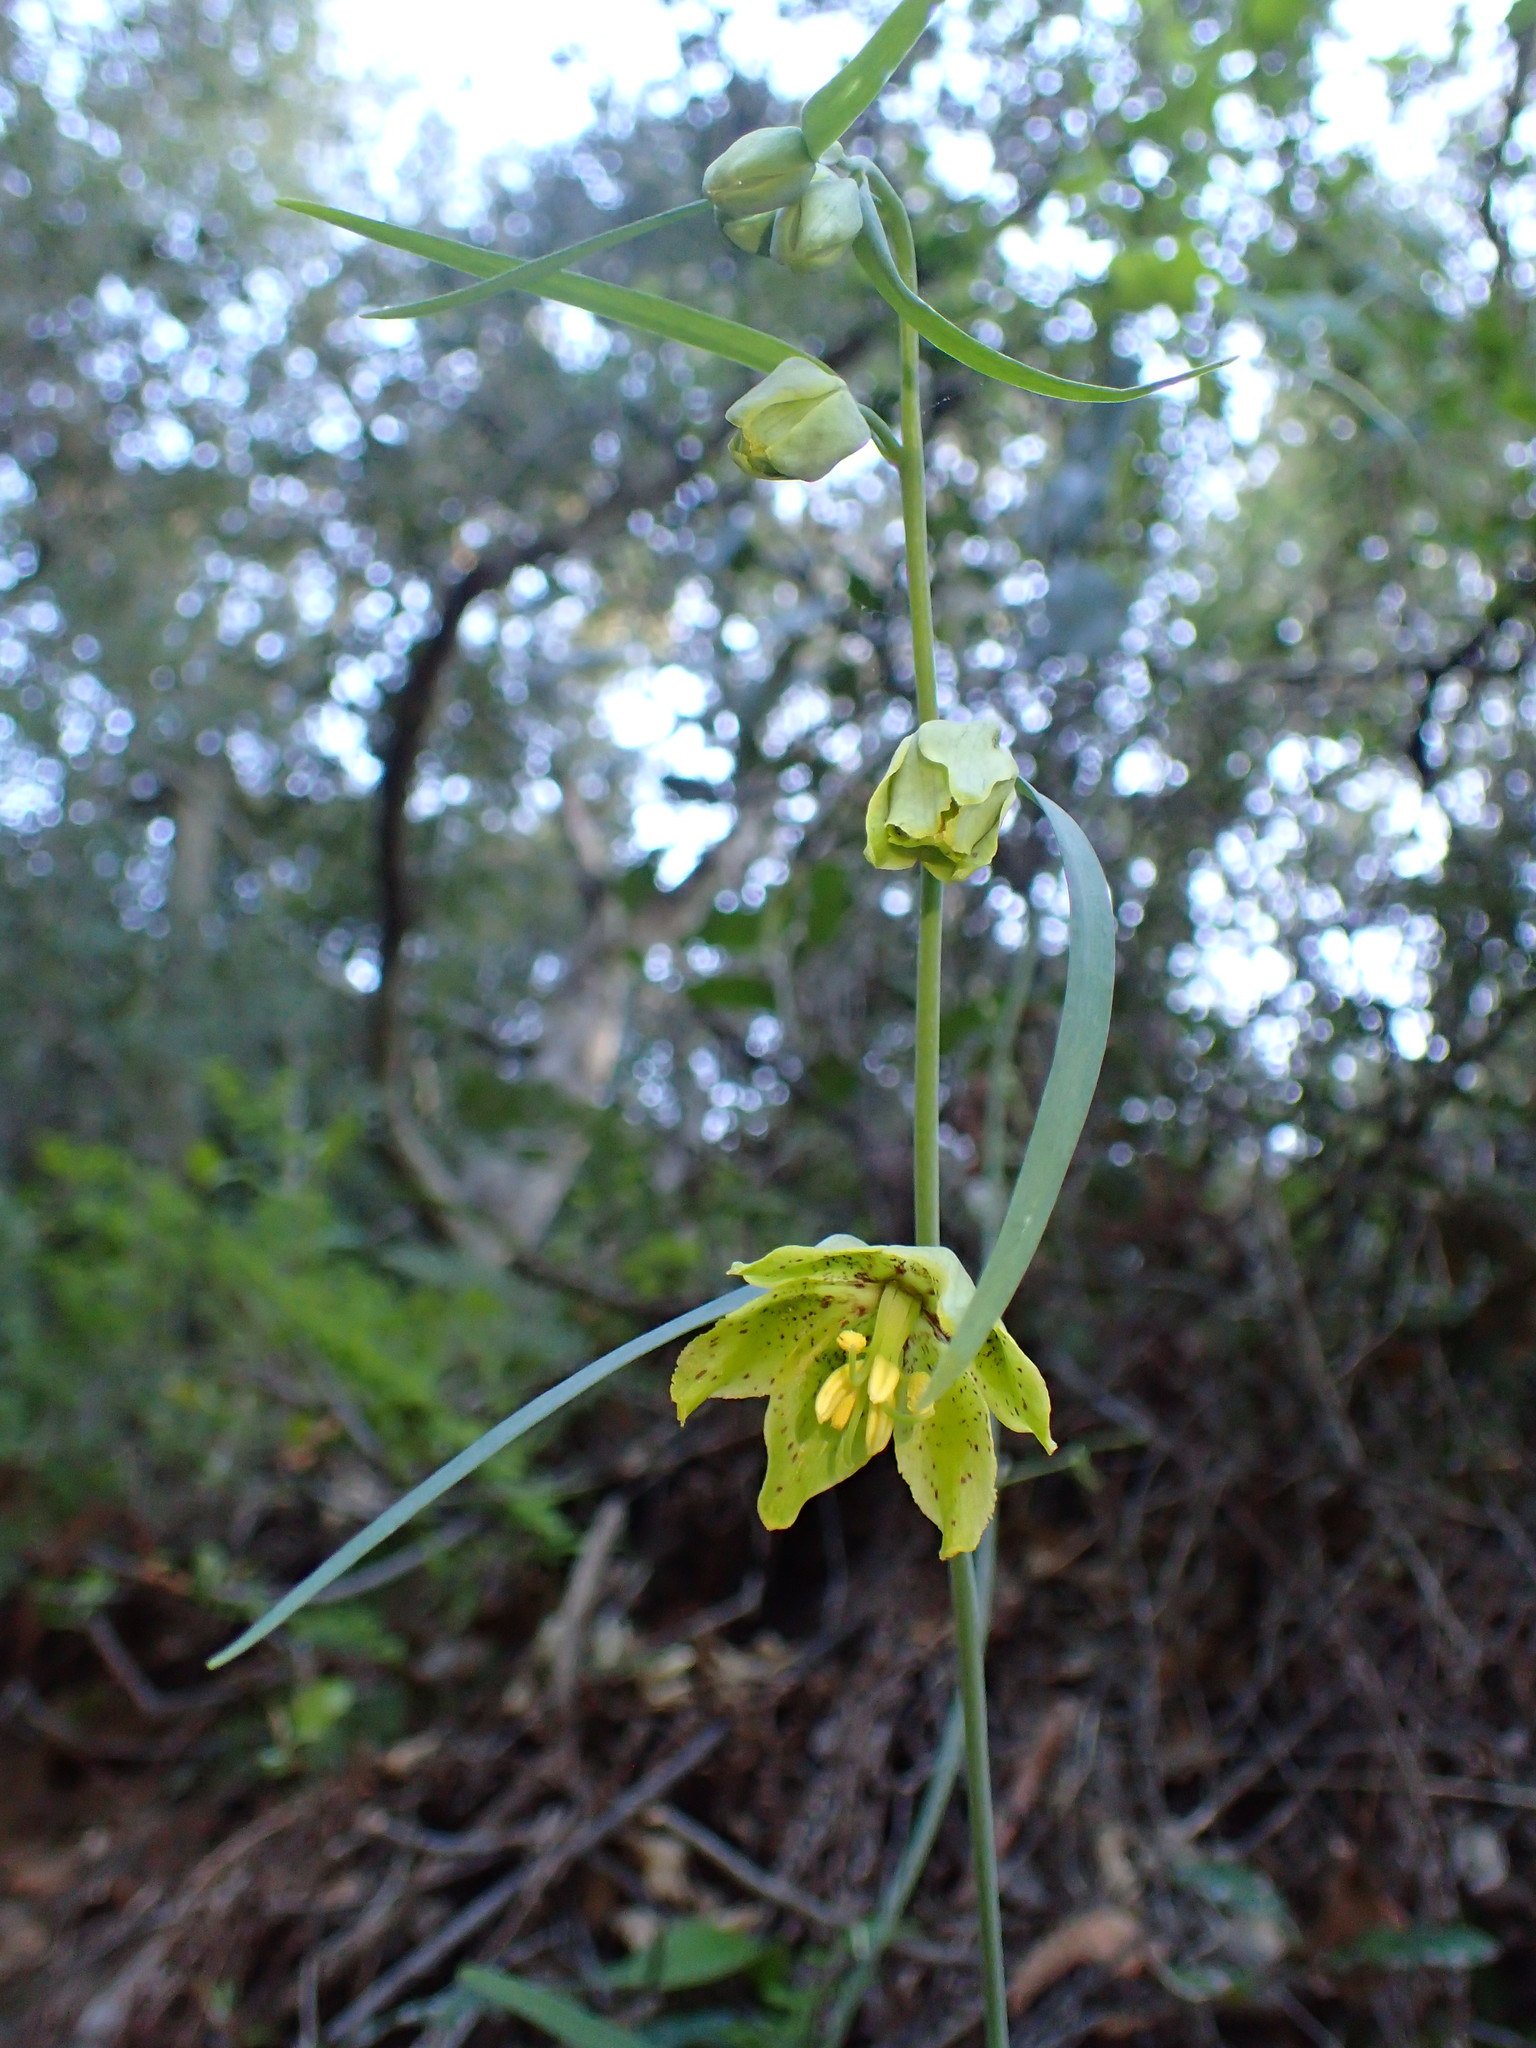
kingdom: Plantae
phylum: Tracheophyta
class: Liliopsida
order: Liliales
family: Liliaceae
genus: Fritillaria
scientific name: Fritillaria ojaiensis
